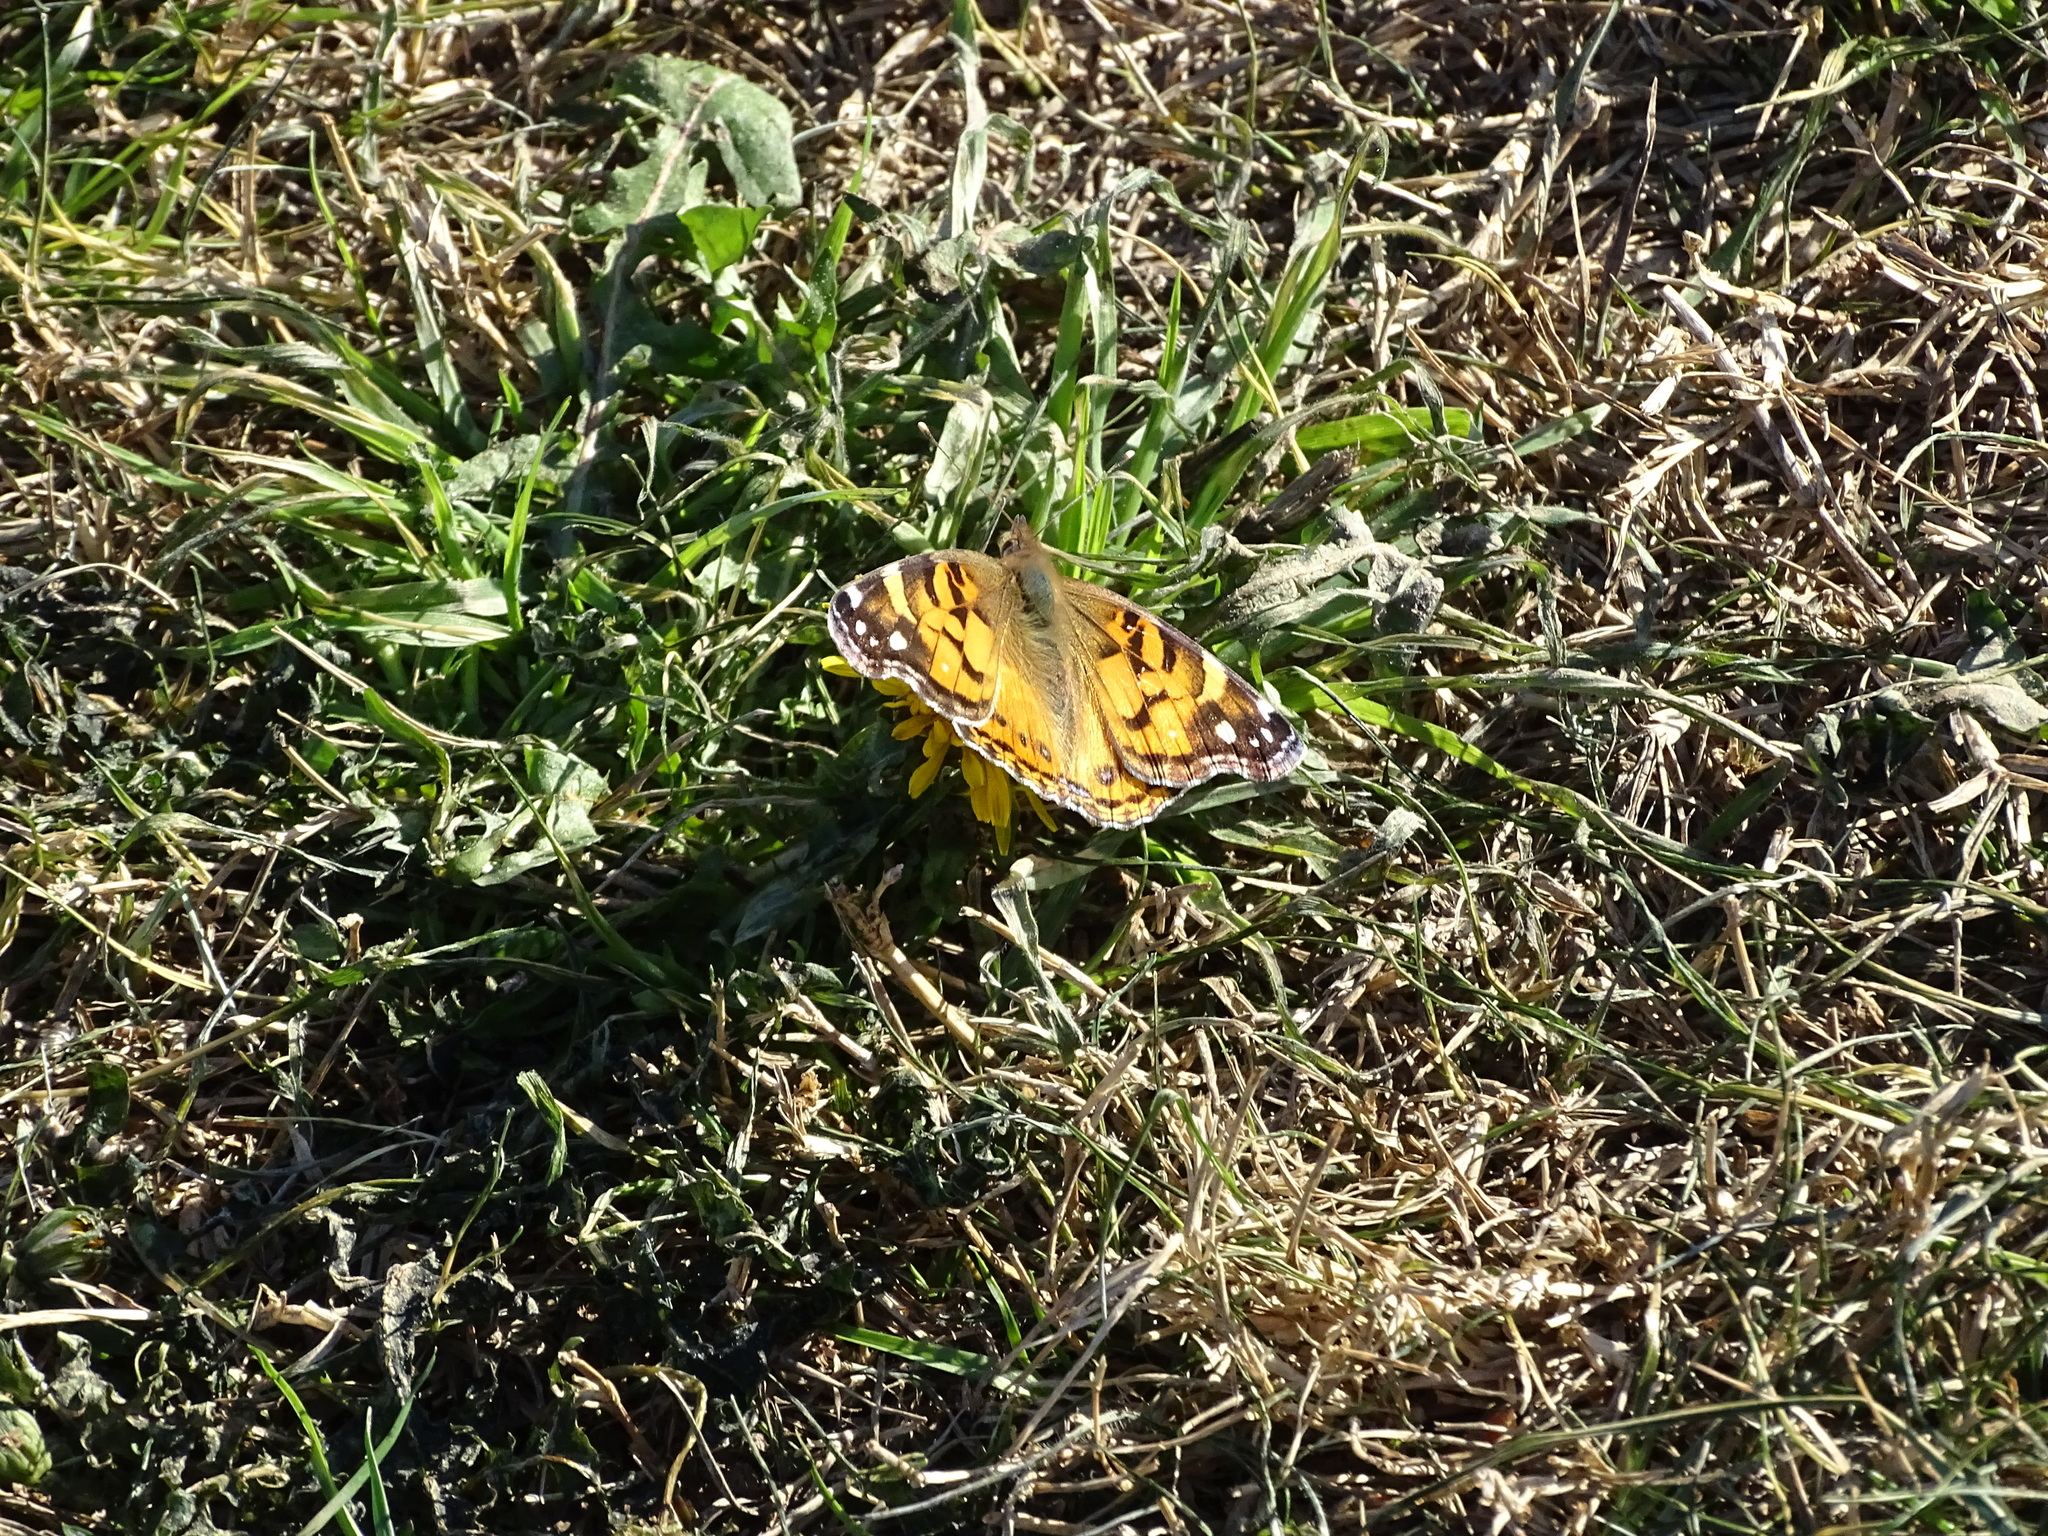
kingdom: Animalia
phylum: Arthropoda
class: Insecta
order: Lepidoptera
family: Nymphalidae
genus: Vanessa
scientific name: Vanessa virginiensis
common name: American lady
